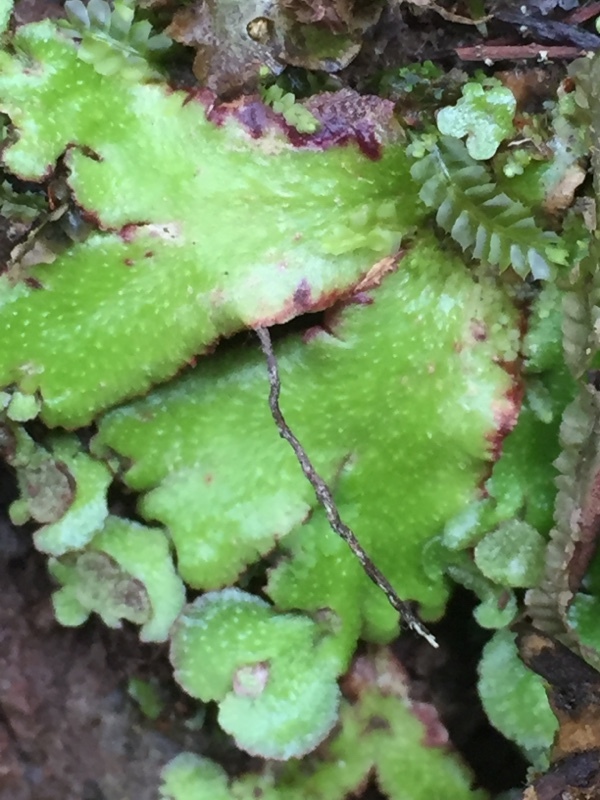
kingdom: Plantae
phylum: Marchantiophyta
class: Marchantiopsida
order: Marchantiales
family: Aytoniaceae
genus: Reboulia
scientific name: Reboulia hemisphaerica
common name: Purple-margined liverwort
